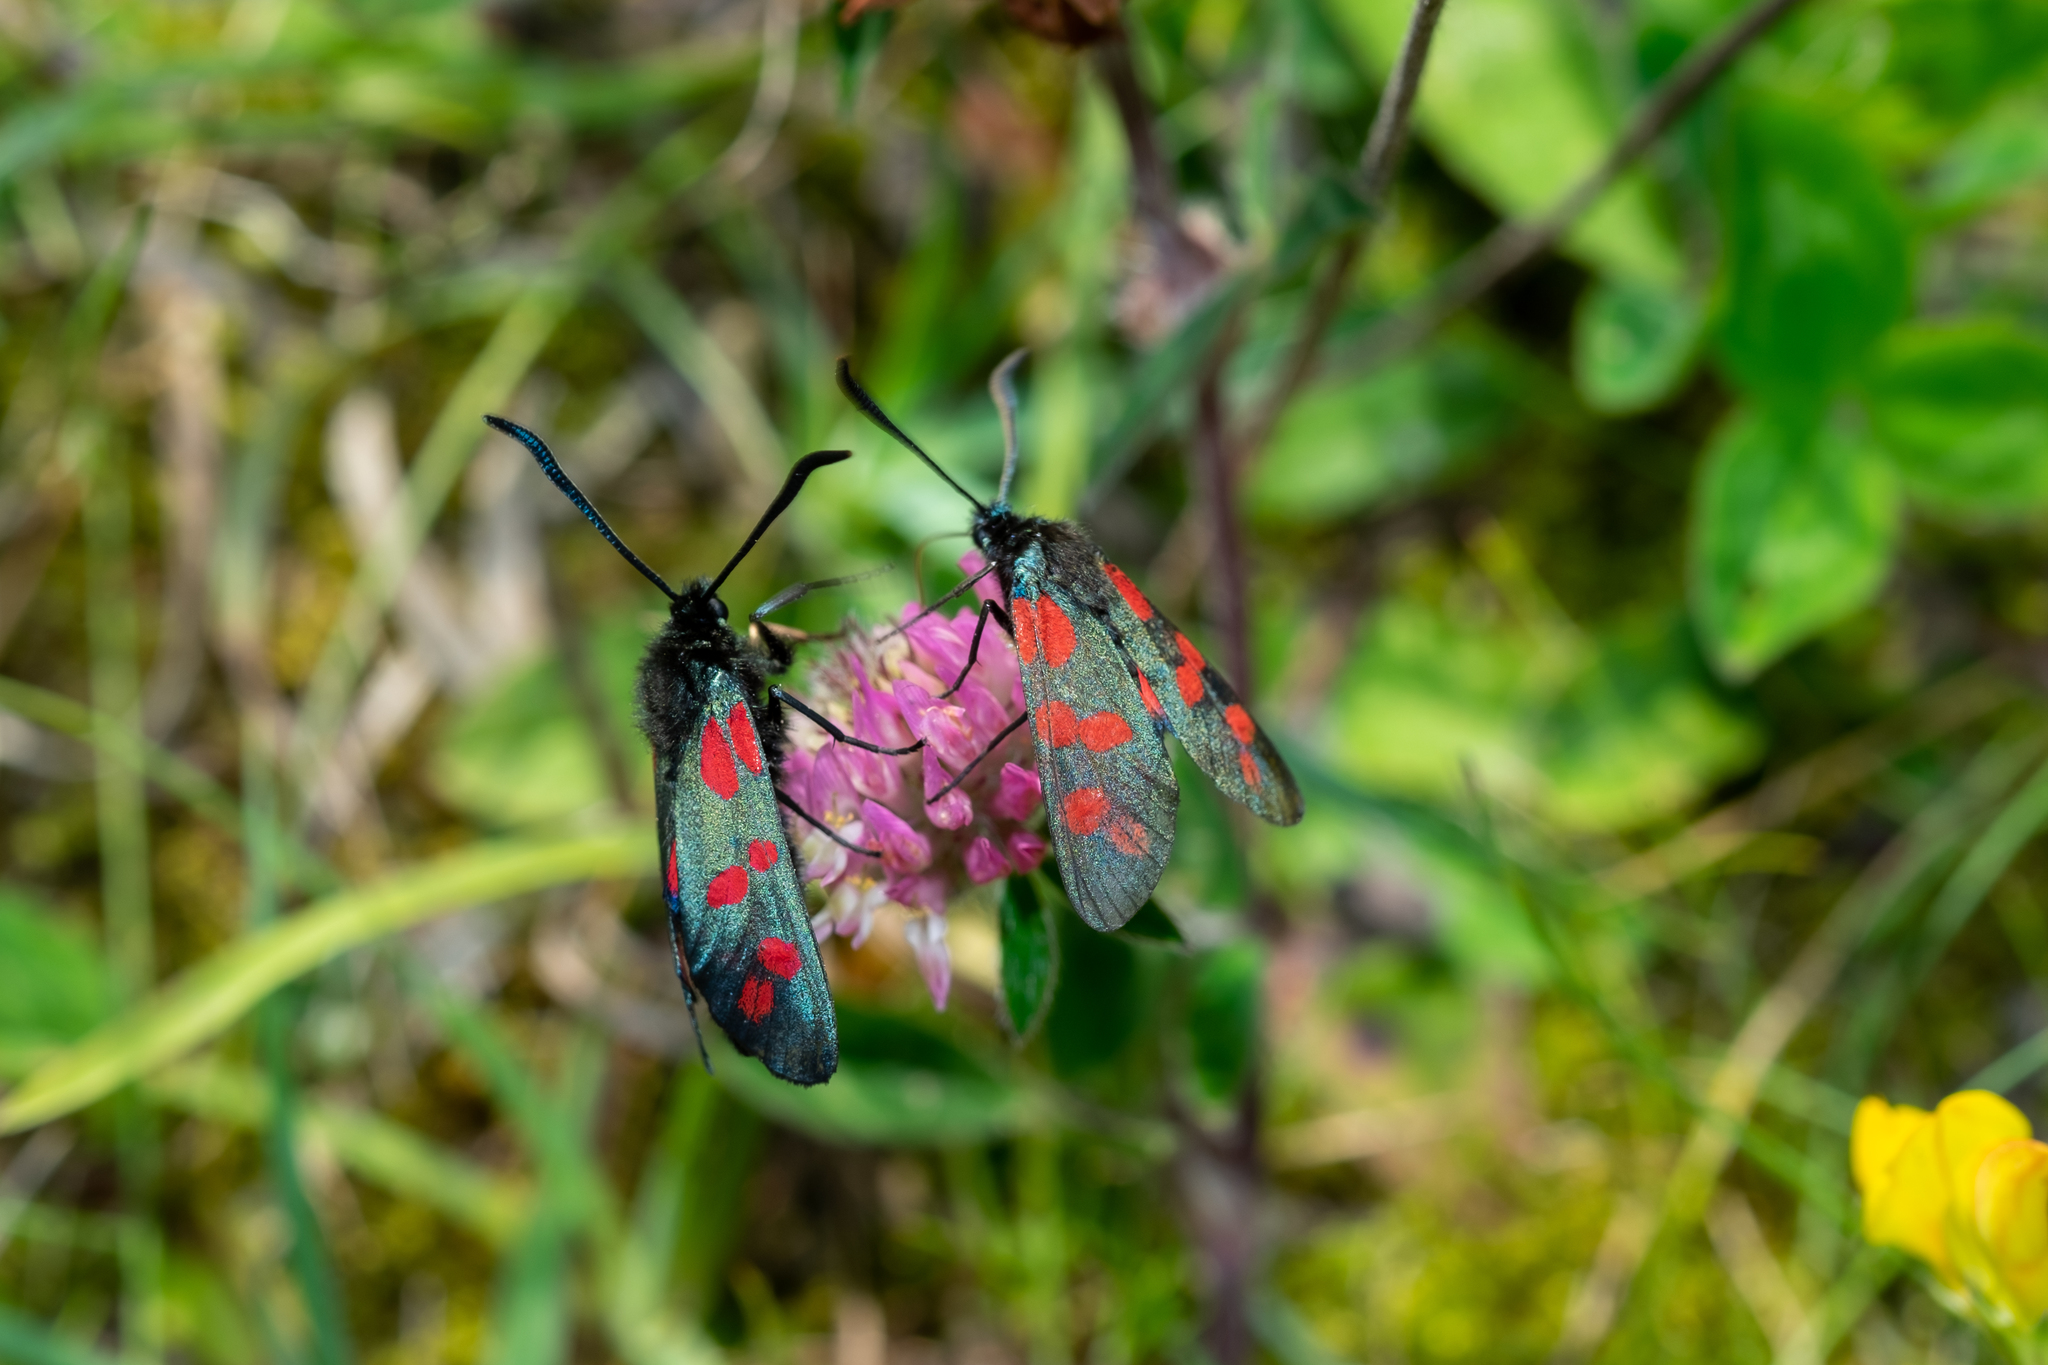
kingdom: Animalia
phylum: Arthropoda
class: Insecta
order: Lepidoptera
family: Zygaenidae
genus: Zygaena
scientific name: Zygaena filipendulae
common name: Six-spot burnet
